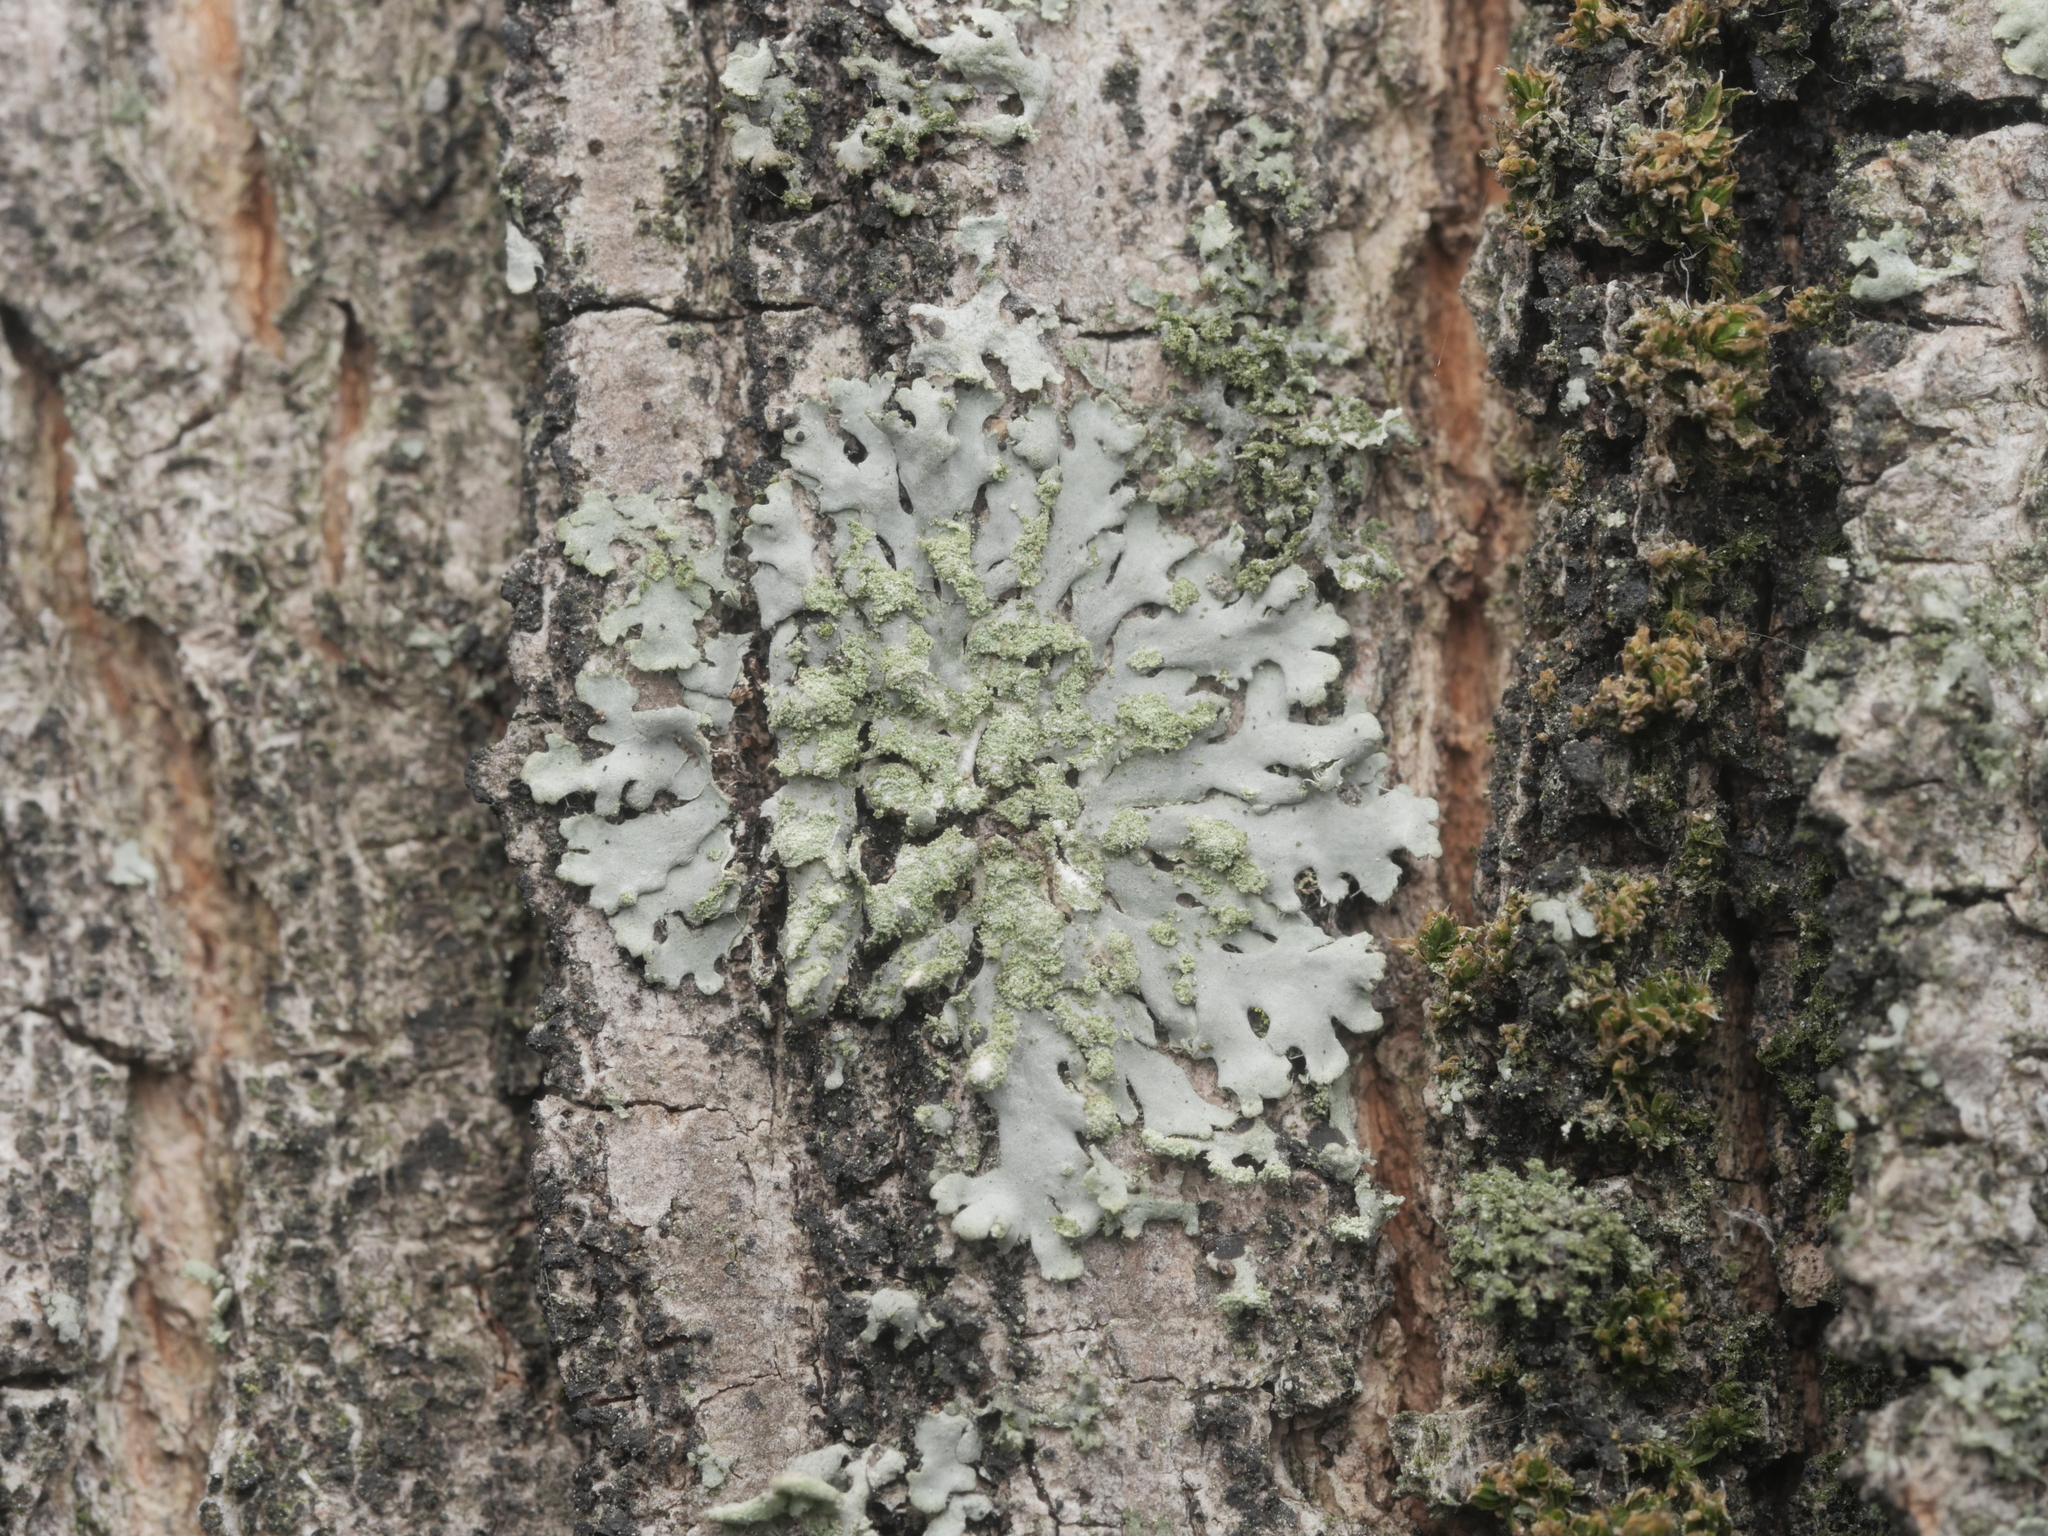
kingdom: Fungi
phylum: Ascomycota
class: Lecanoromycetes
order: Caliciales
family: Physciaceae
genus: Phaeophyscia
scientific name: Phaeophyscia orbicularis
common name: Mealy shadow lichen
